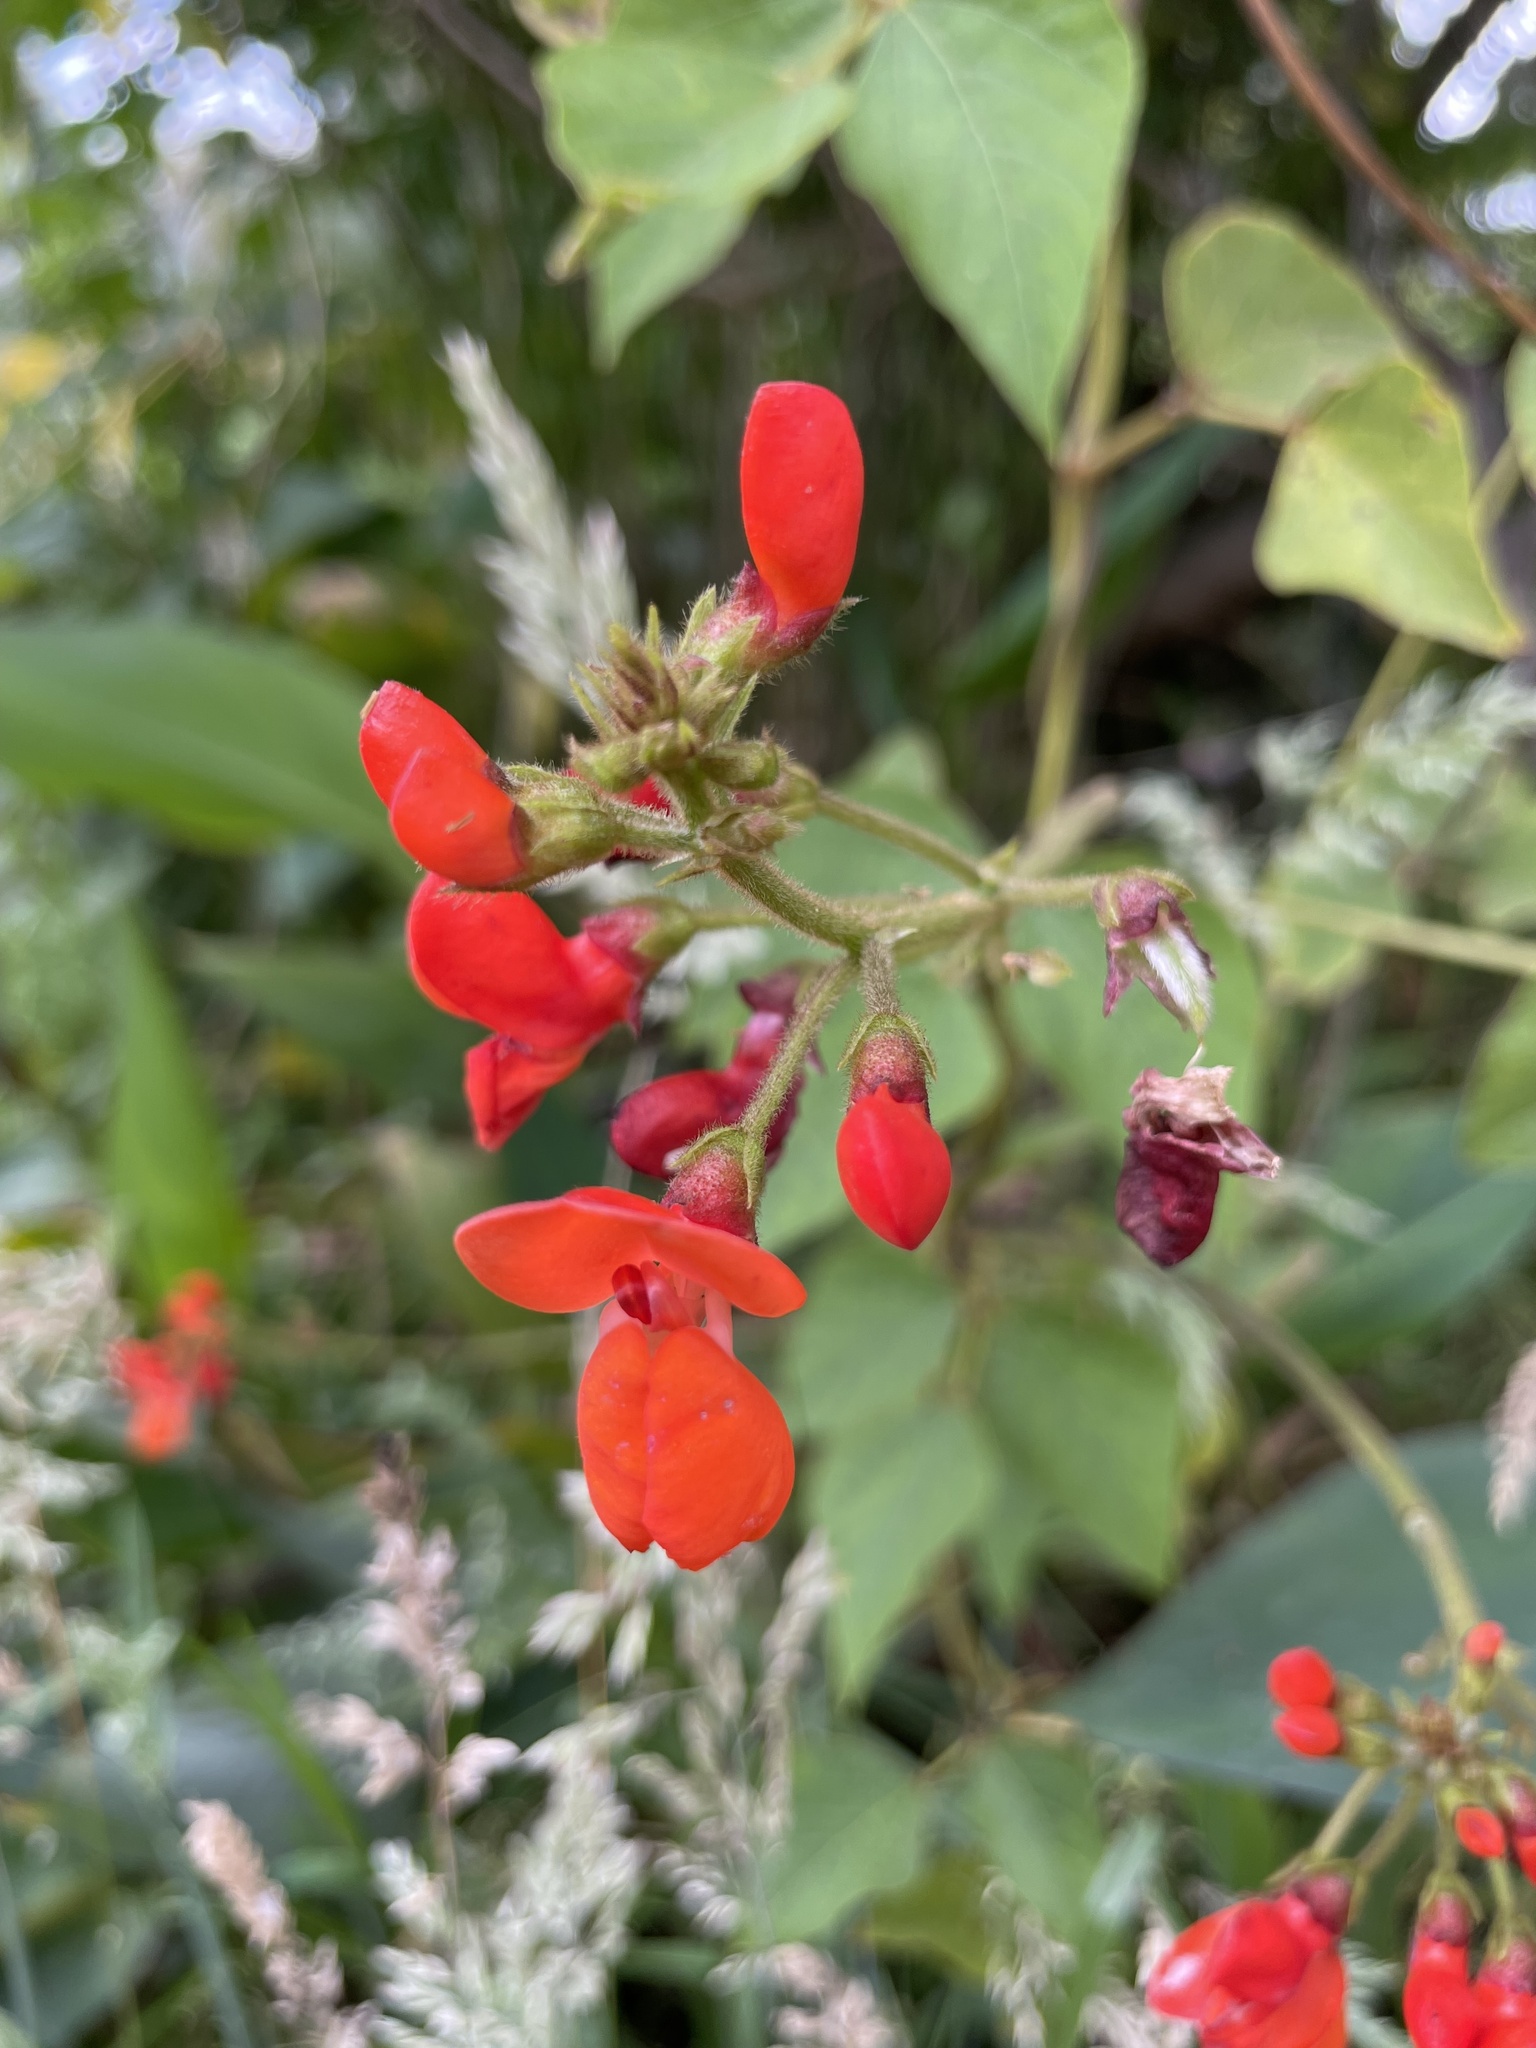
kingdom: Plantae
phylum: Tracheophyta
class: Magnoliopsida
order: Fabales
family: Fabaceae
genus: Phaseolus
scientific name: Phaseolus coccineus
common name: Runner bean
